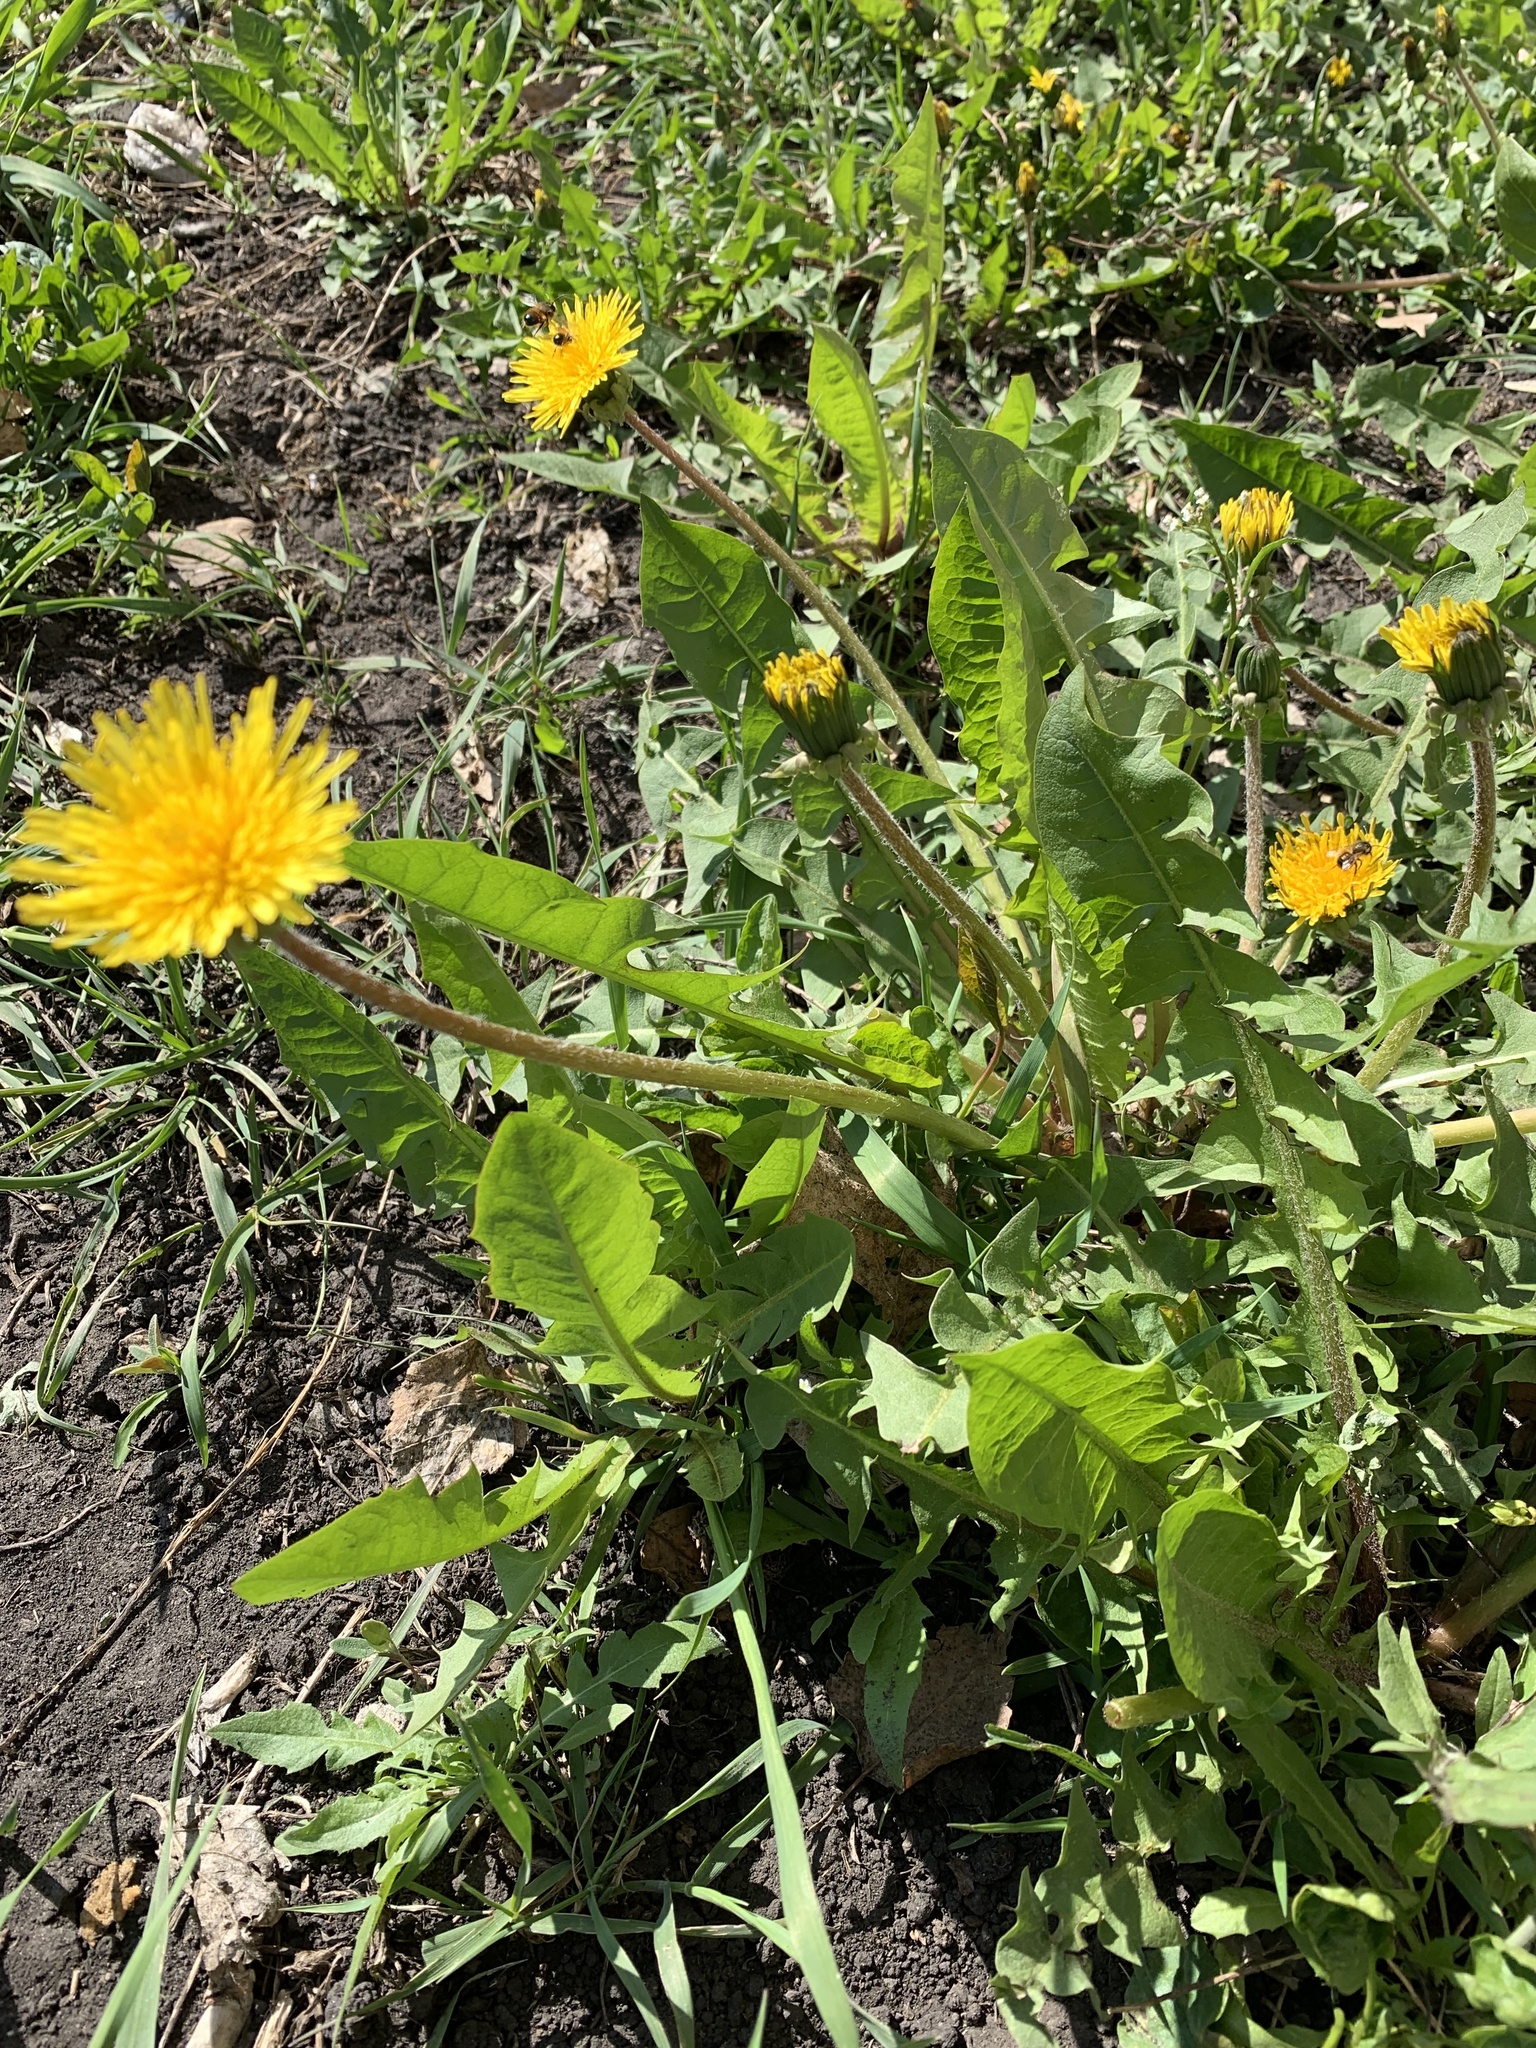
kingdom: Plantae
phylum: Tracheophyta
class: Magnoliopsida
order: Asterales
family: Asteraceae
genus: Taraxacum
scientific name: Taraxacum officinale
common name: Common dandelion
